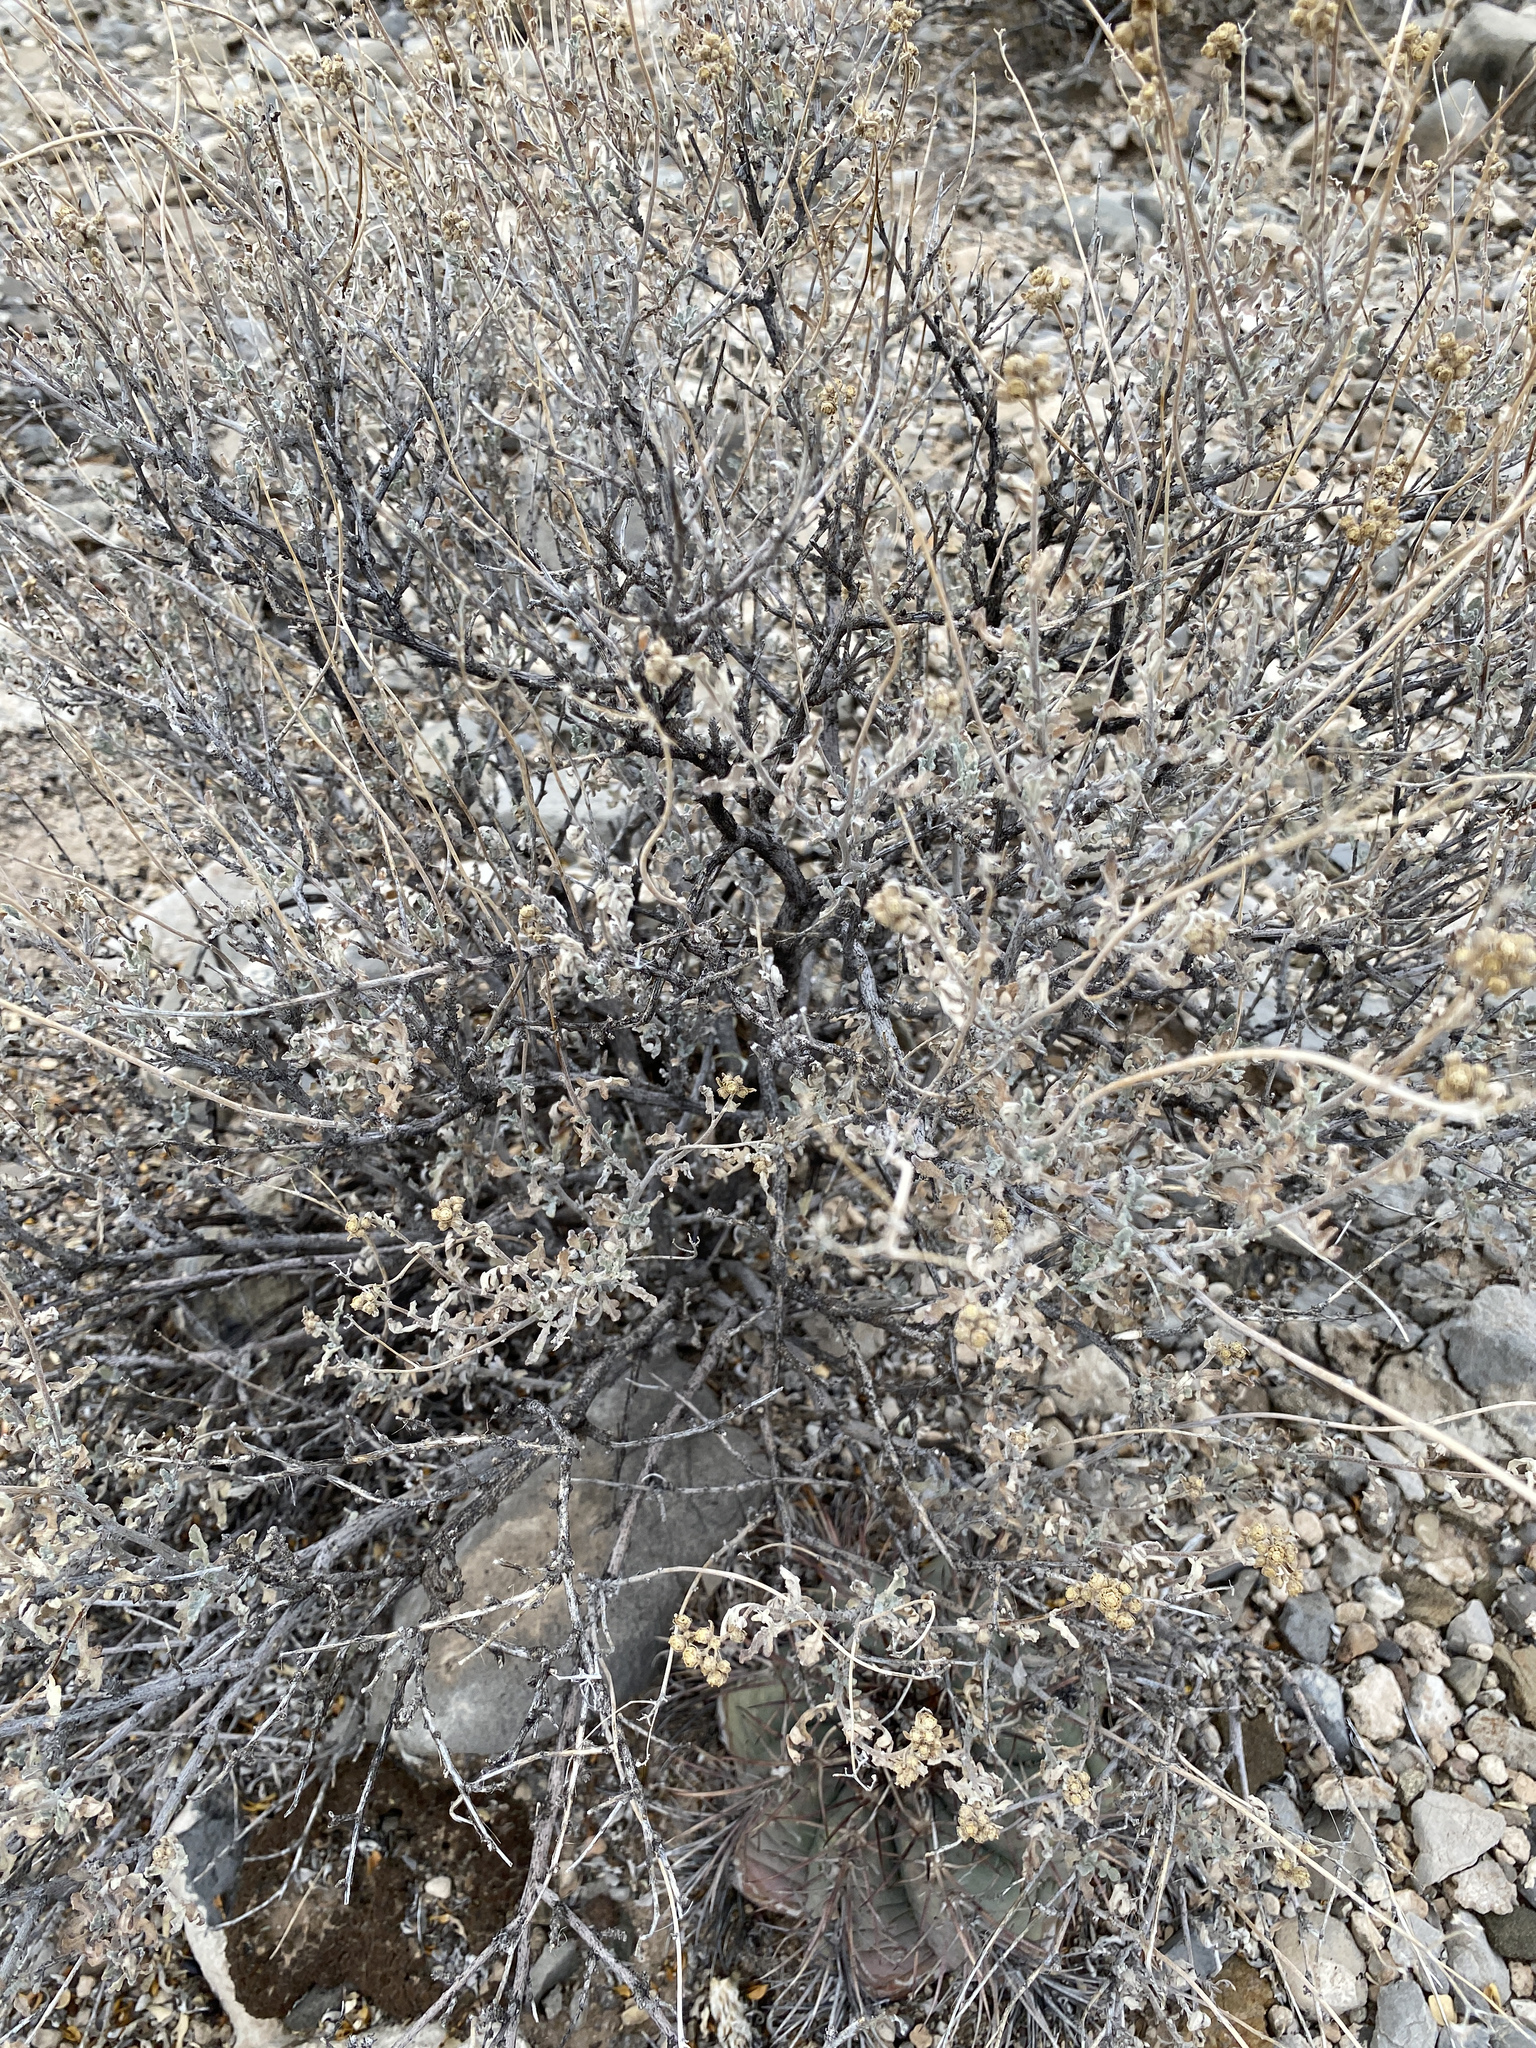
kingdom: Plantae
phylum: Tracheophyta
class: Magnoliopsida
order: Asterales
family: Asteraceae
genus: Parthenium
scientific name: Parthenium incanum
